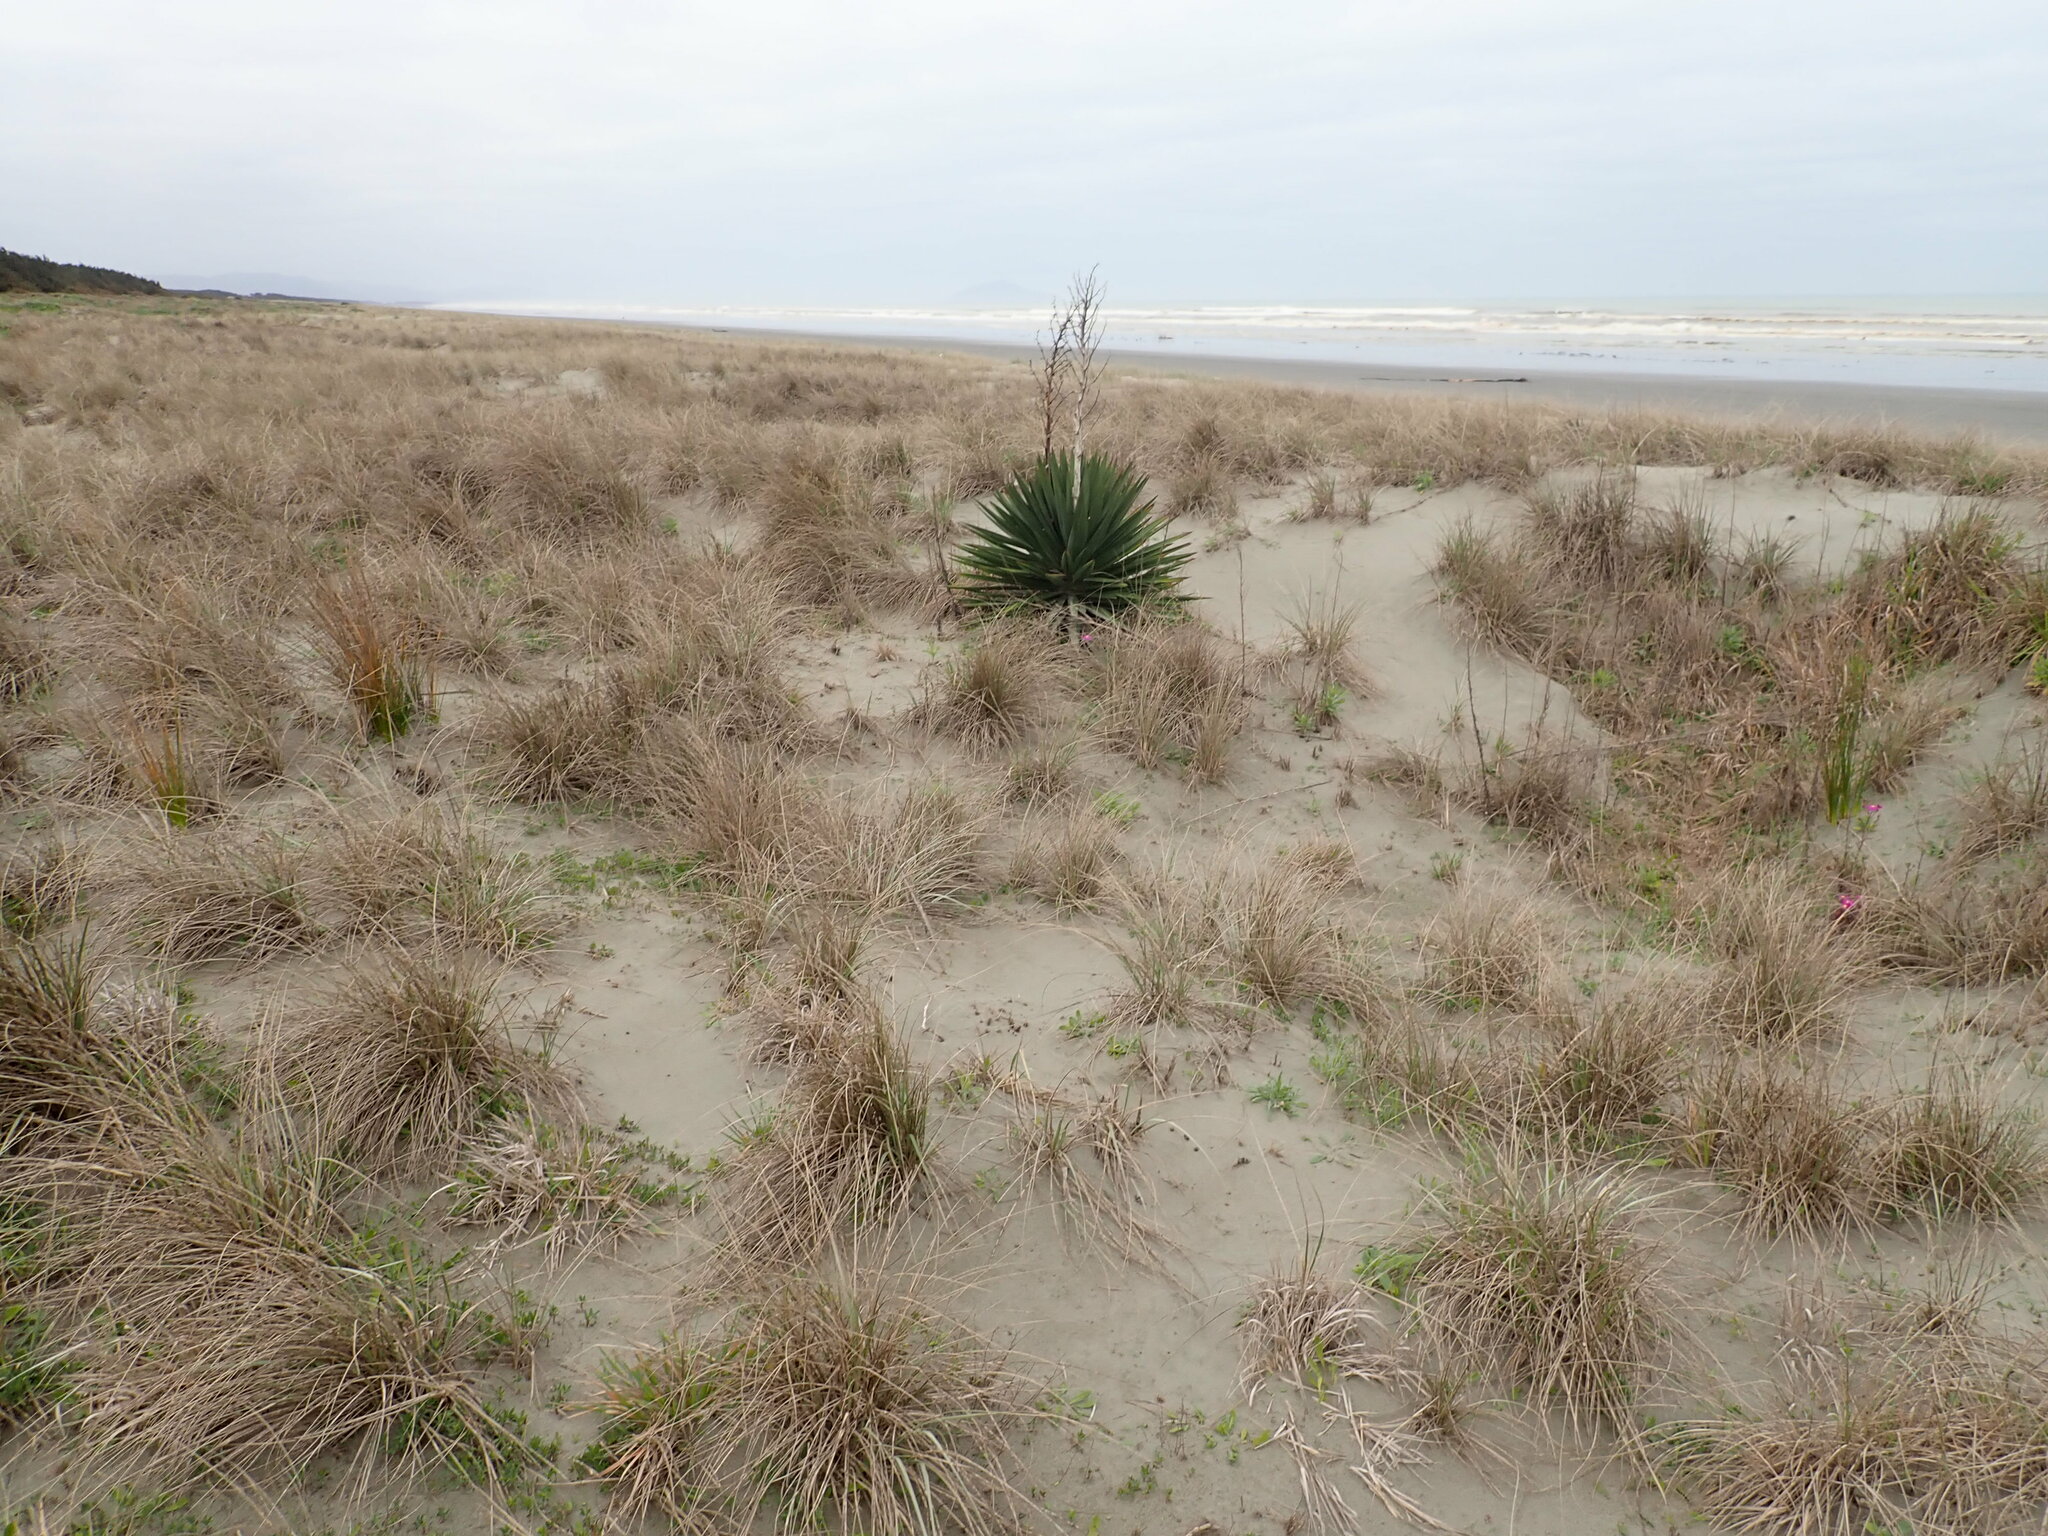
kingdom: Plantae
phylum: Tracheophyta
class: Liliopsida
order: Asparagales
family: Asparagaceae
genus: Yucca
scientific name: Yucca gloriosa
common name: Spanish-dagger
